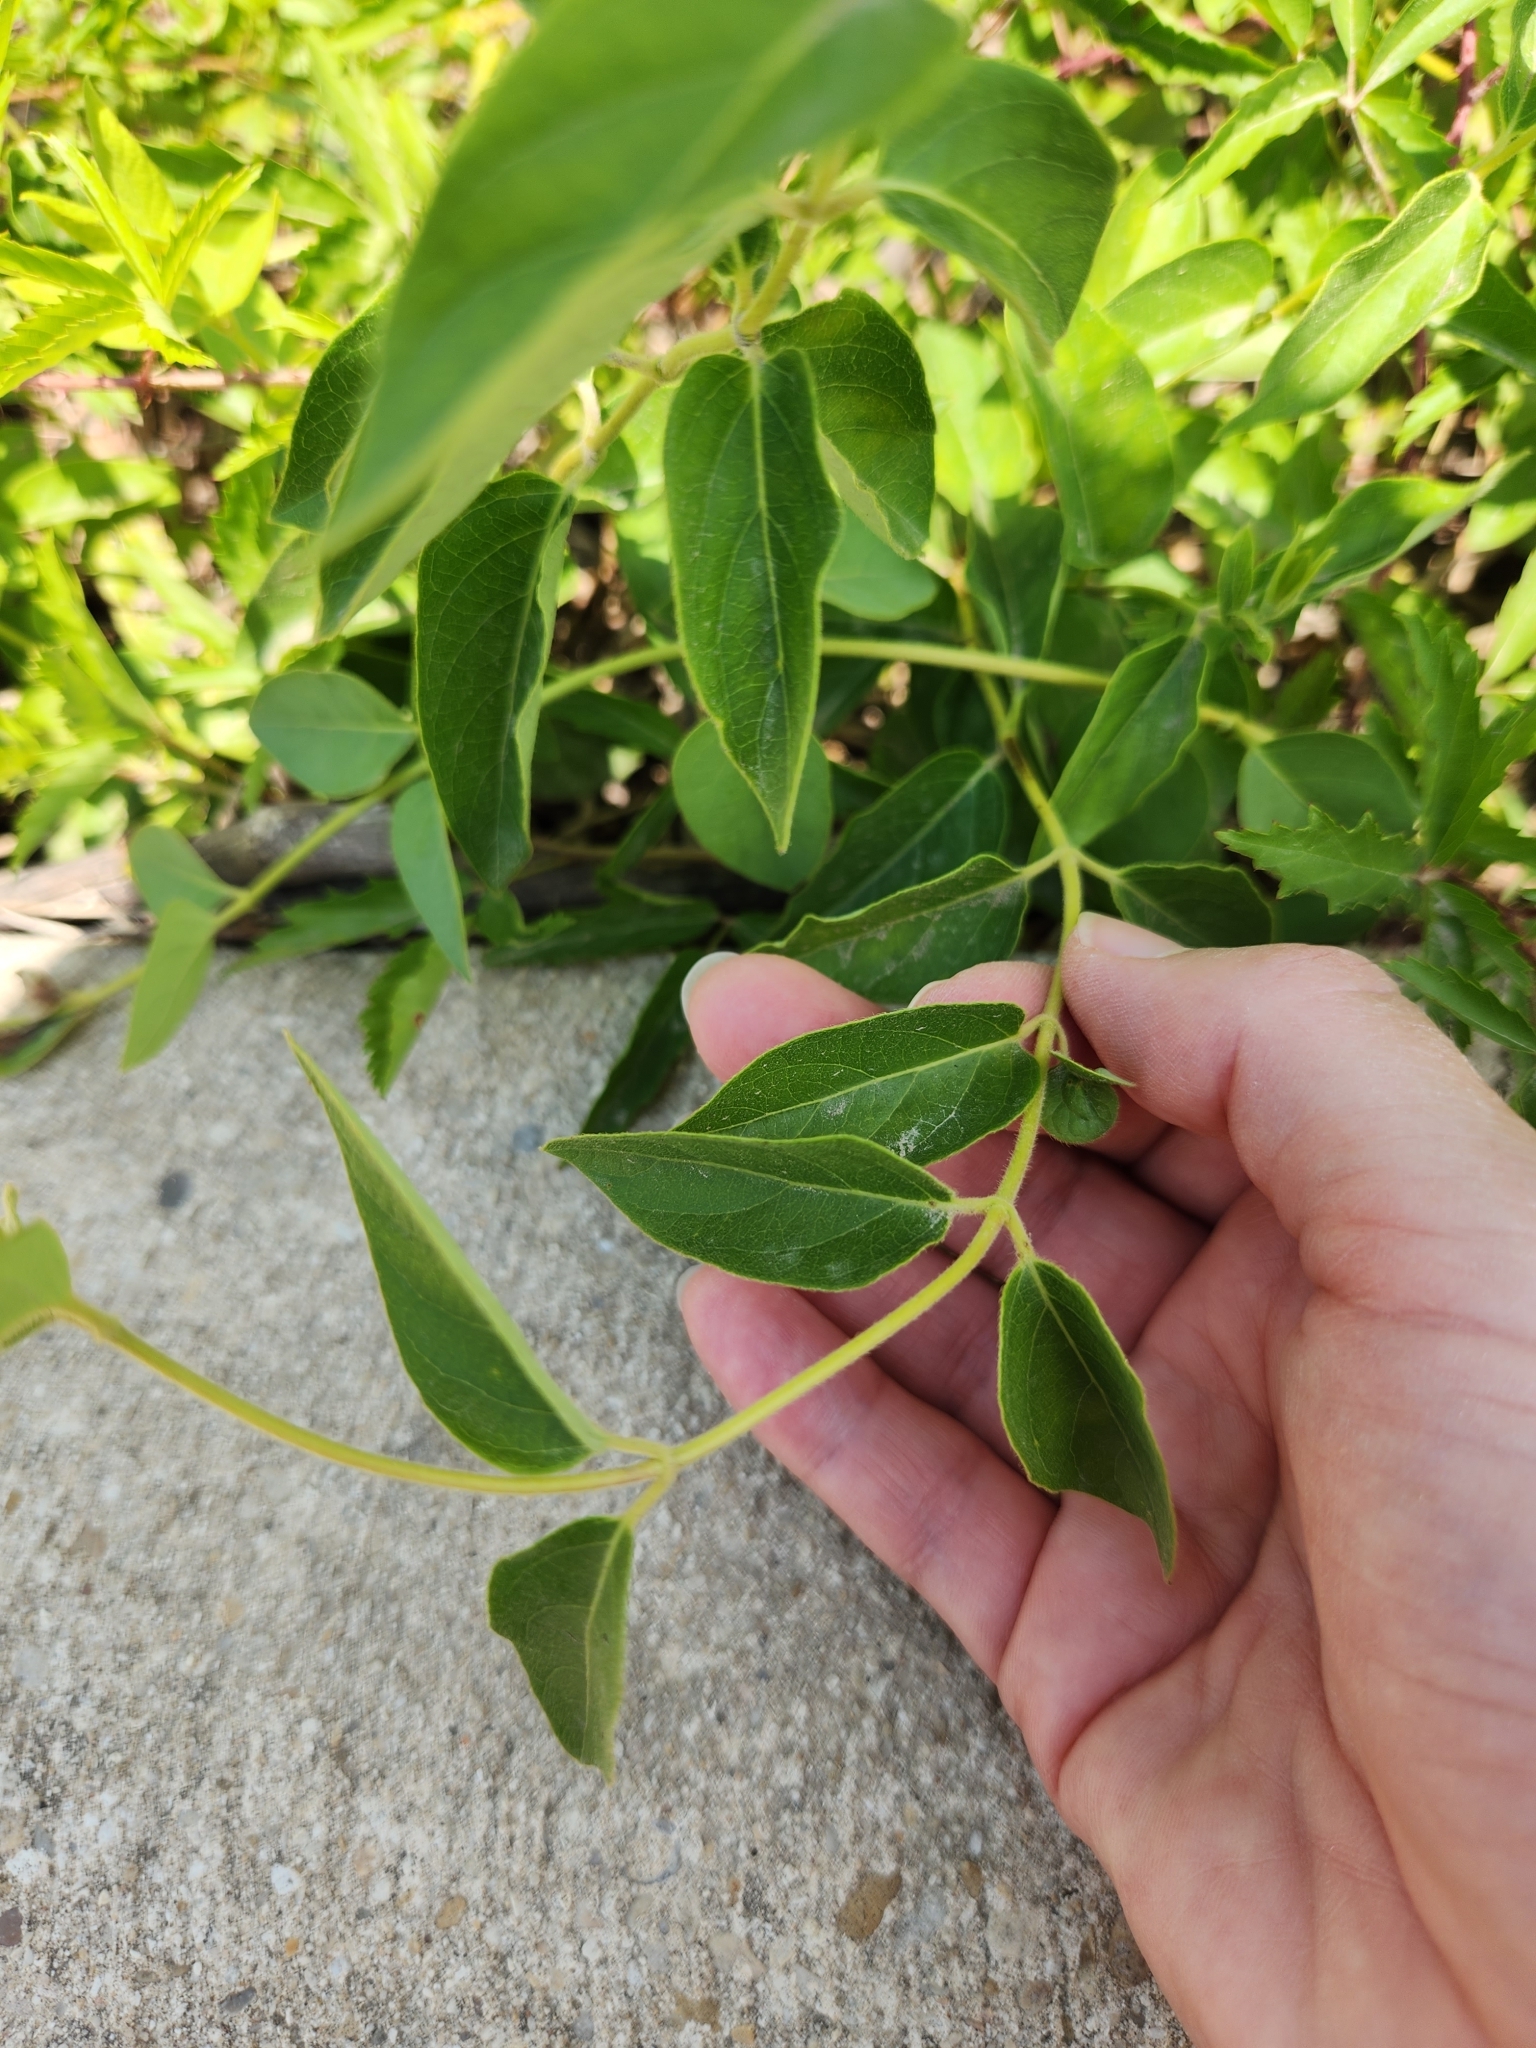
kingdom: Plantae
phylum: Tracheophyta
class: Magnoliopsida
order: Dipsacales
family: Caprifoliaceae
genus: Lonicera
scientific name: Lonicera japonica
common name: Japanese honeysuckle
